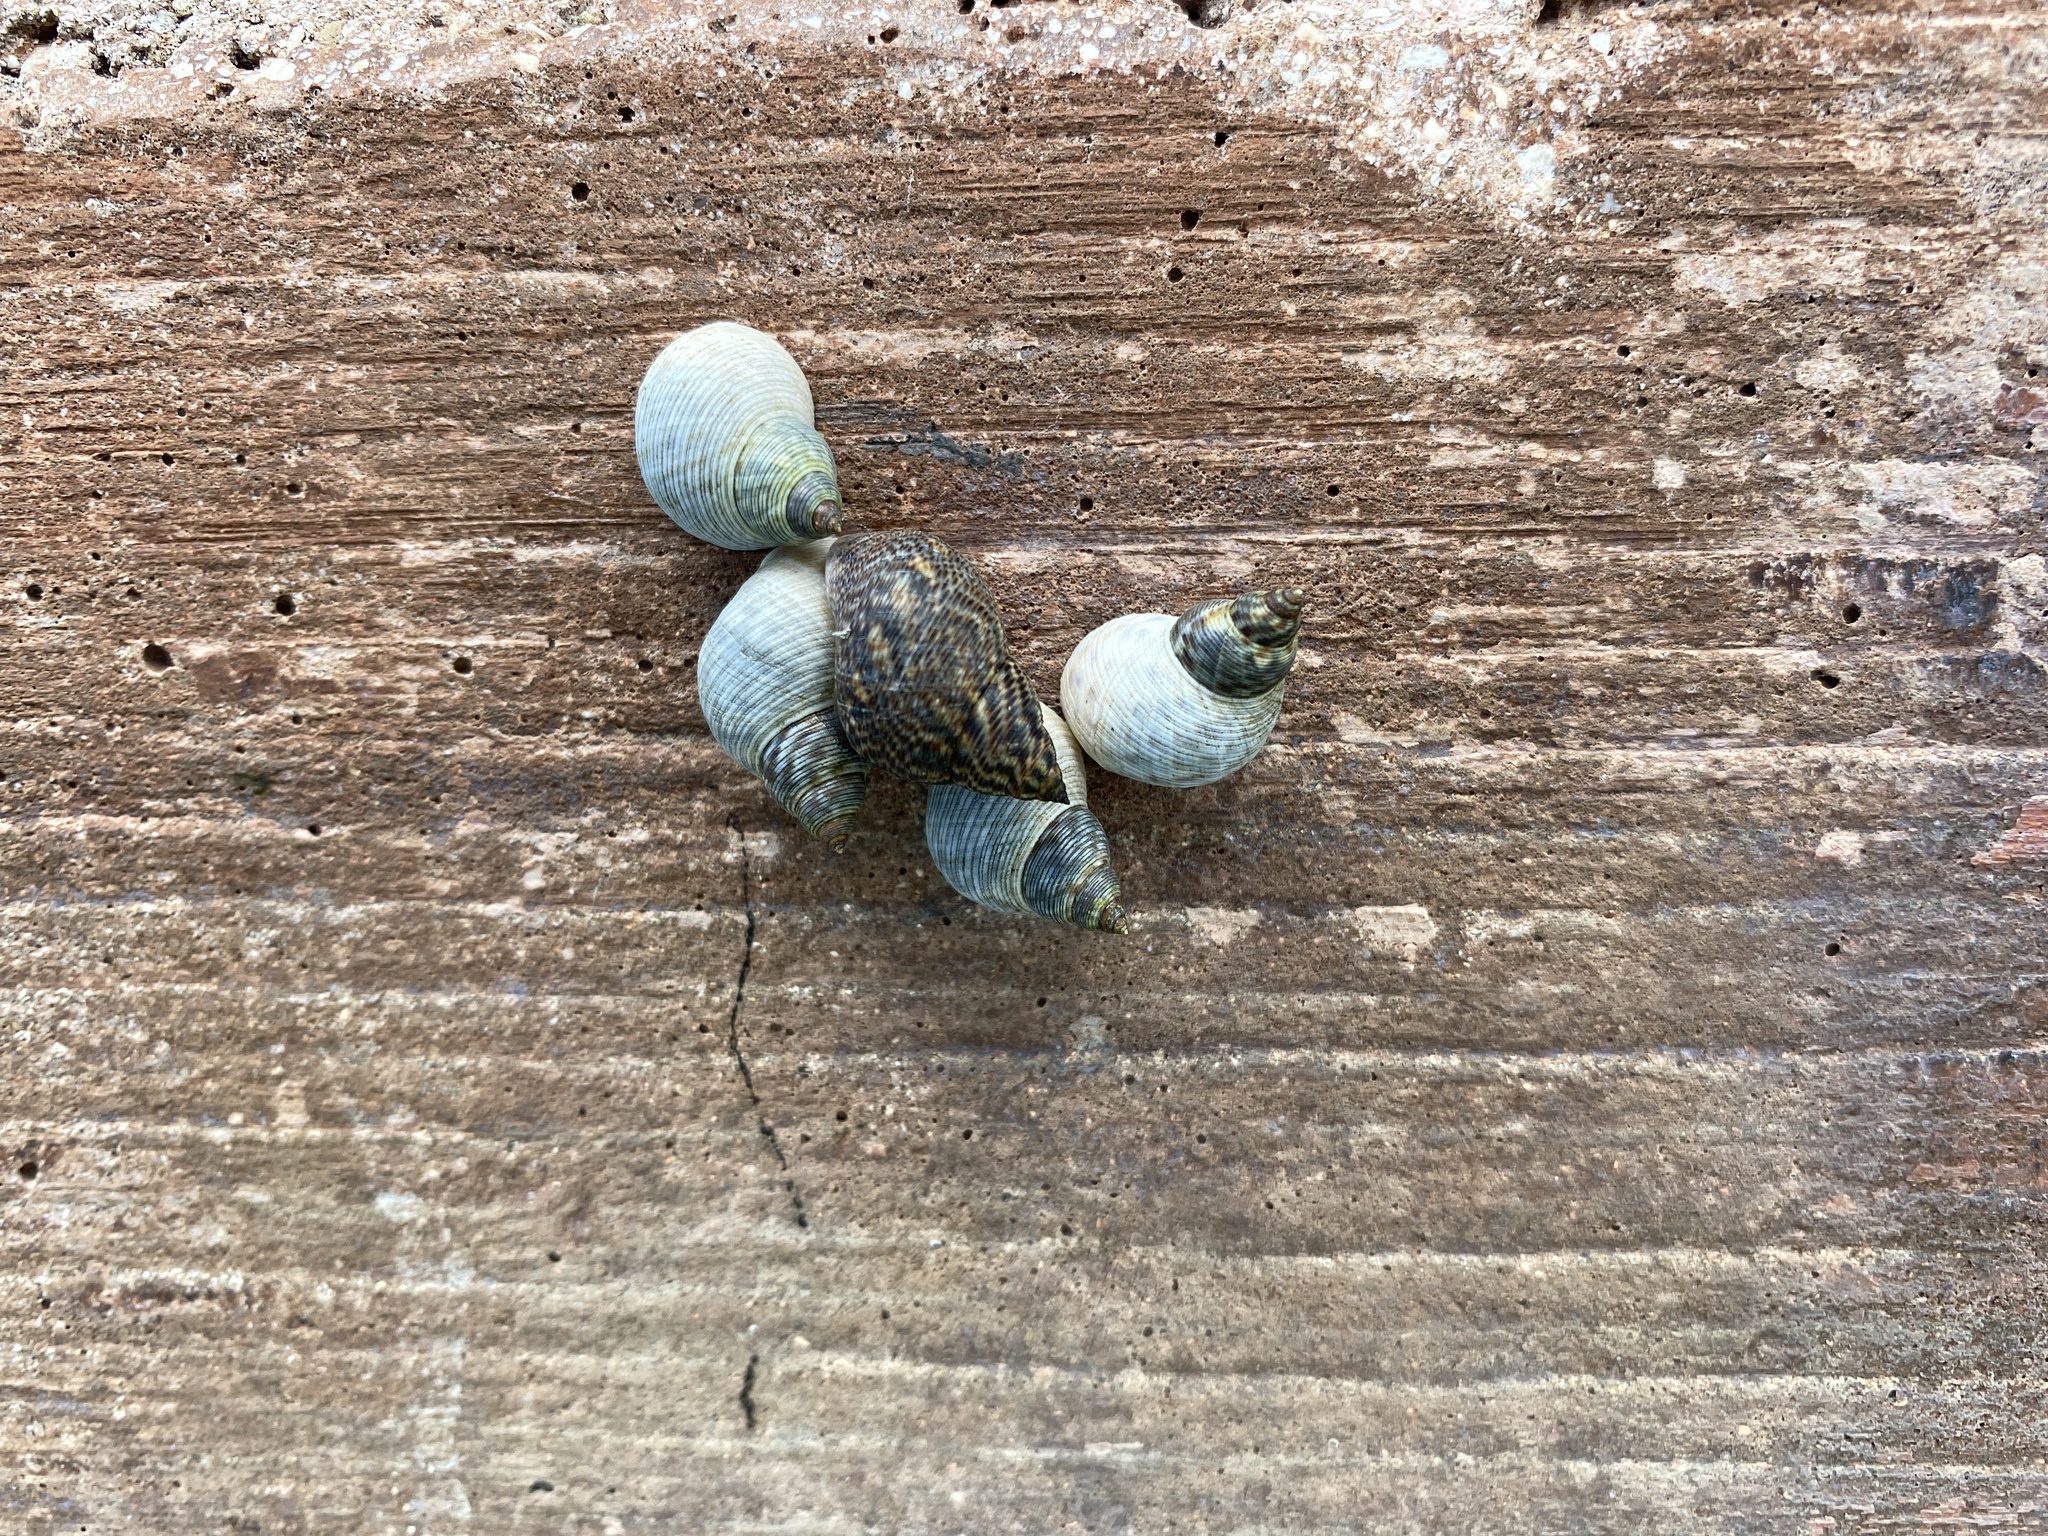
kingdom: Animalia
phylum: Mollusca
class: Gastropoda
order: Littorinimorpha
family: Littorinidae
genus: Littoraria
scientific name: Littoraria angulifera
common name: Mangrove periwinkle
